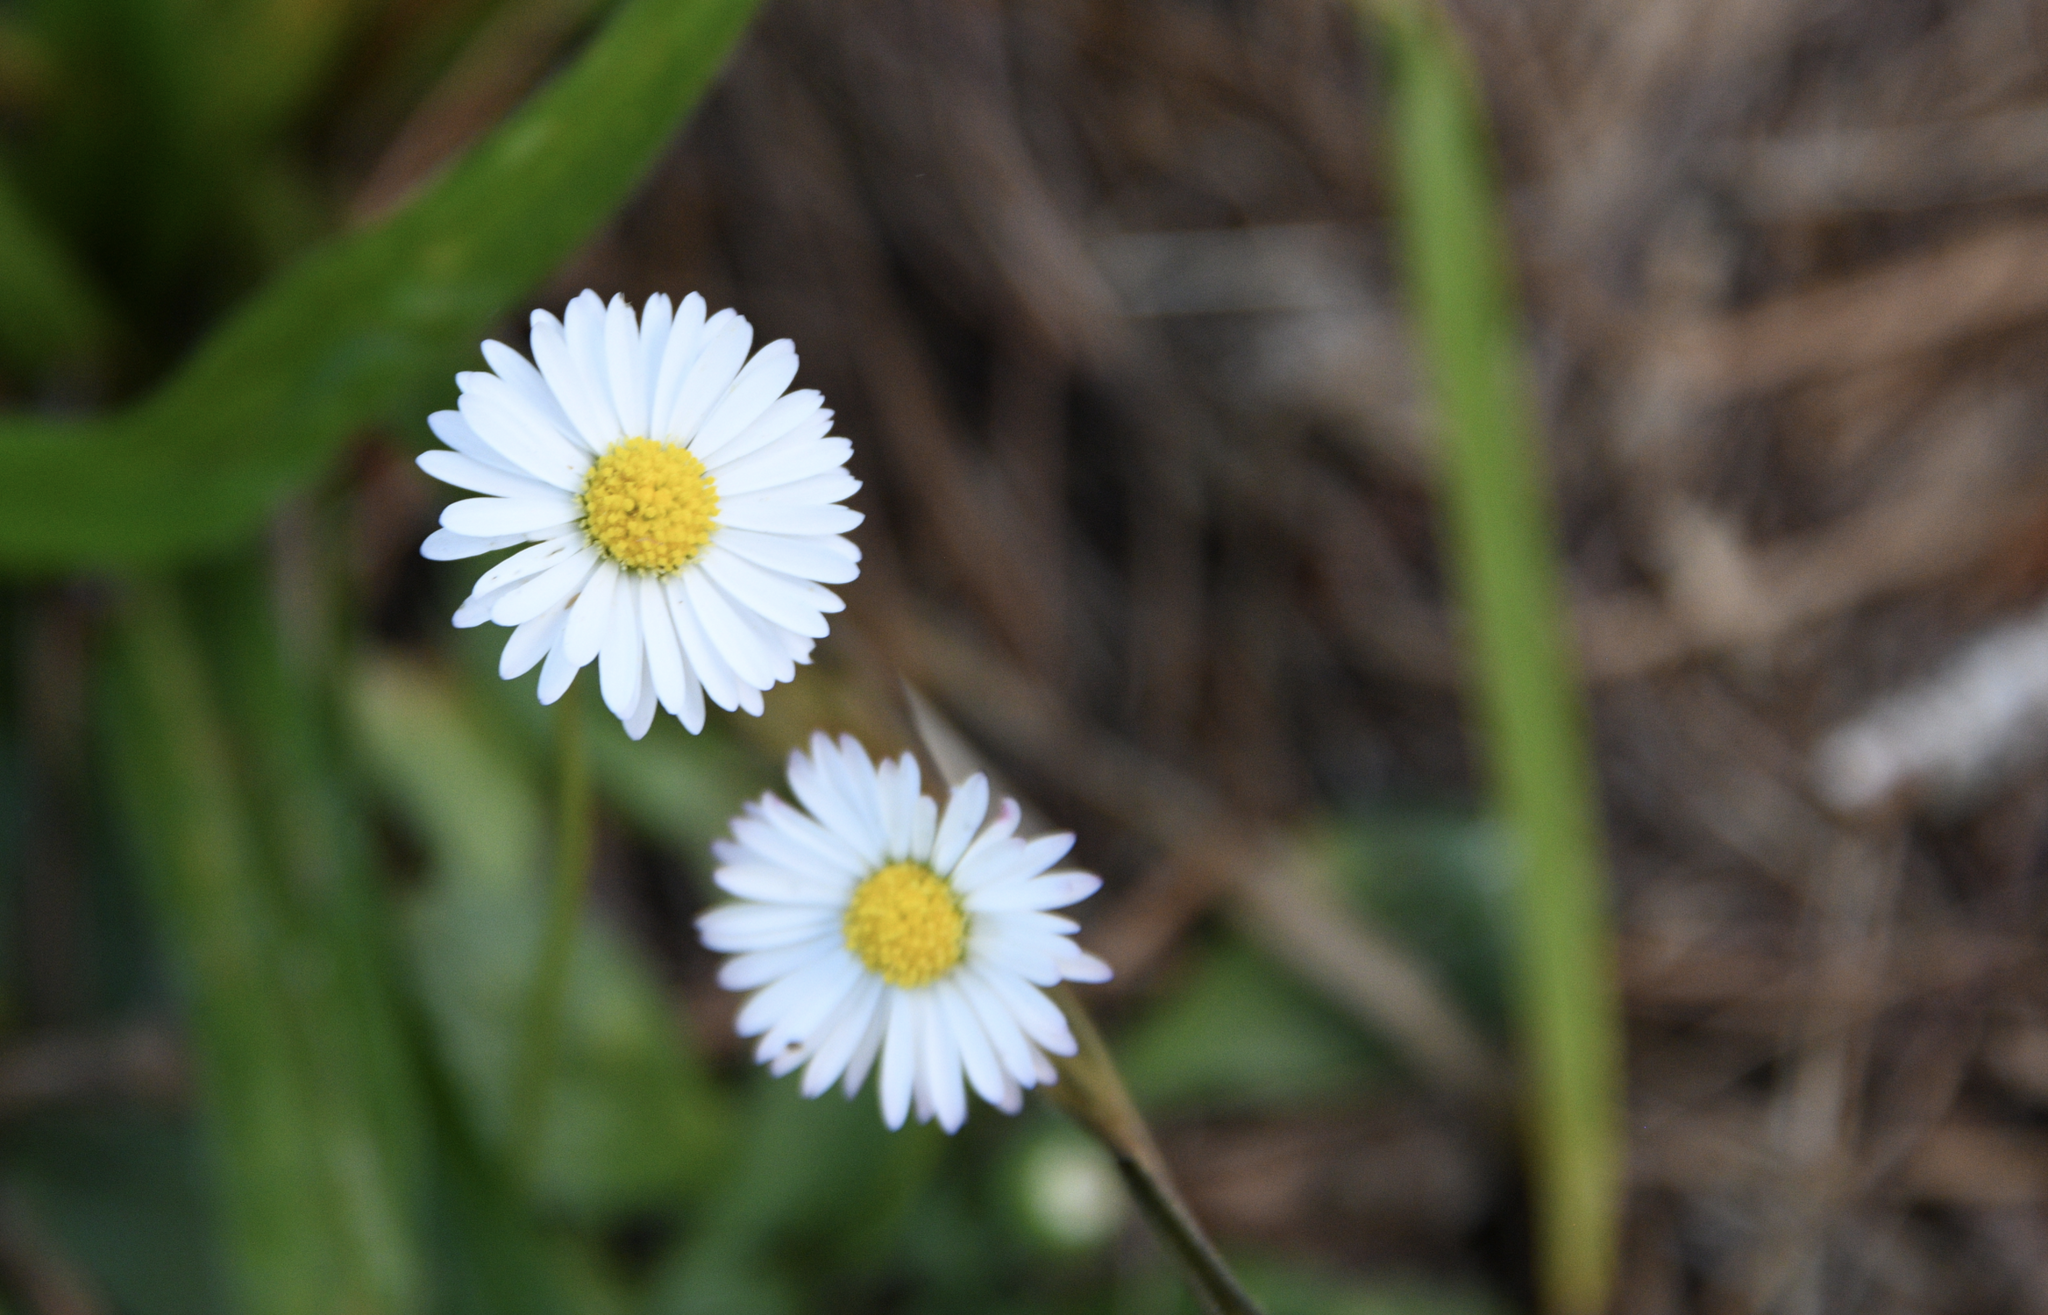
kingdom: Plantae
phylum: Tracheophyta
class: Magnoliopsida
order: Asterales
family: Asteraceae
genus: Bellis
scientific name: Bellis perennis
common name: Lawndaisy
